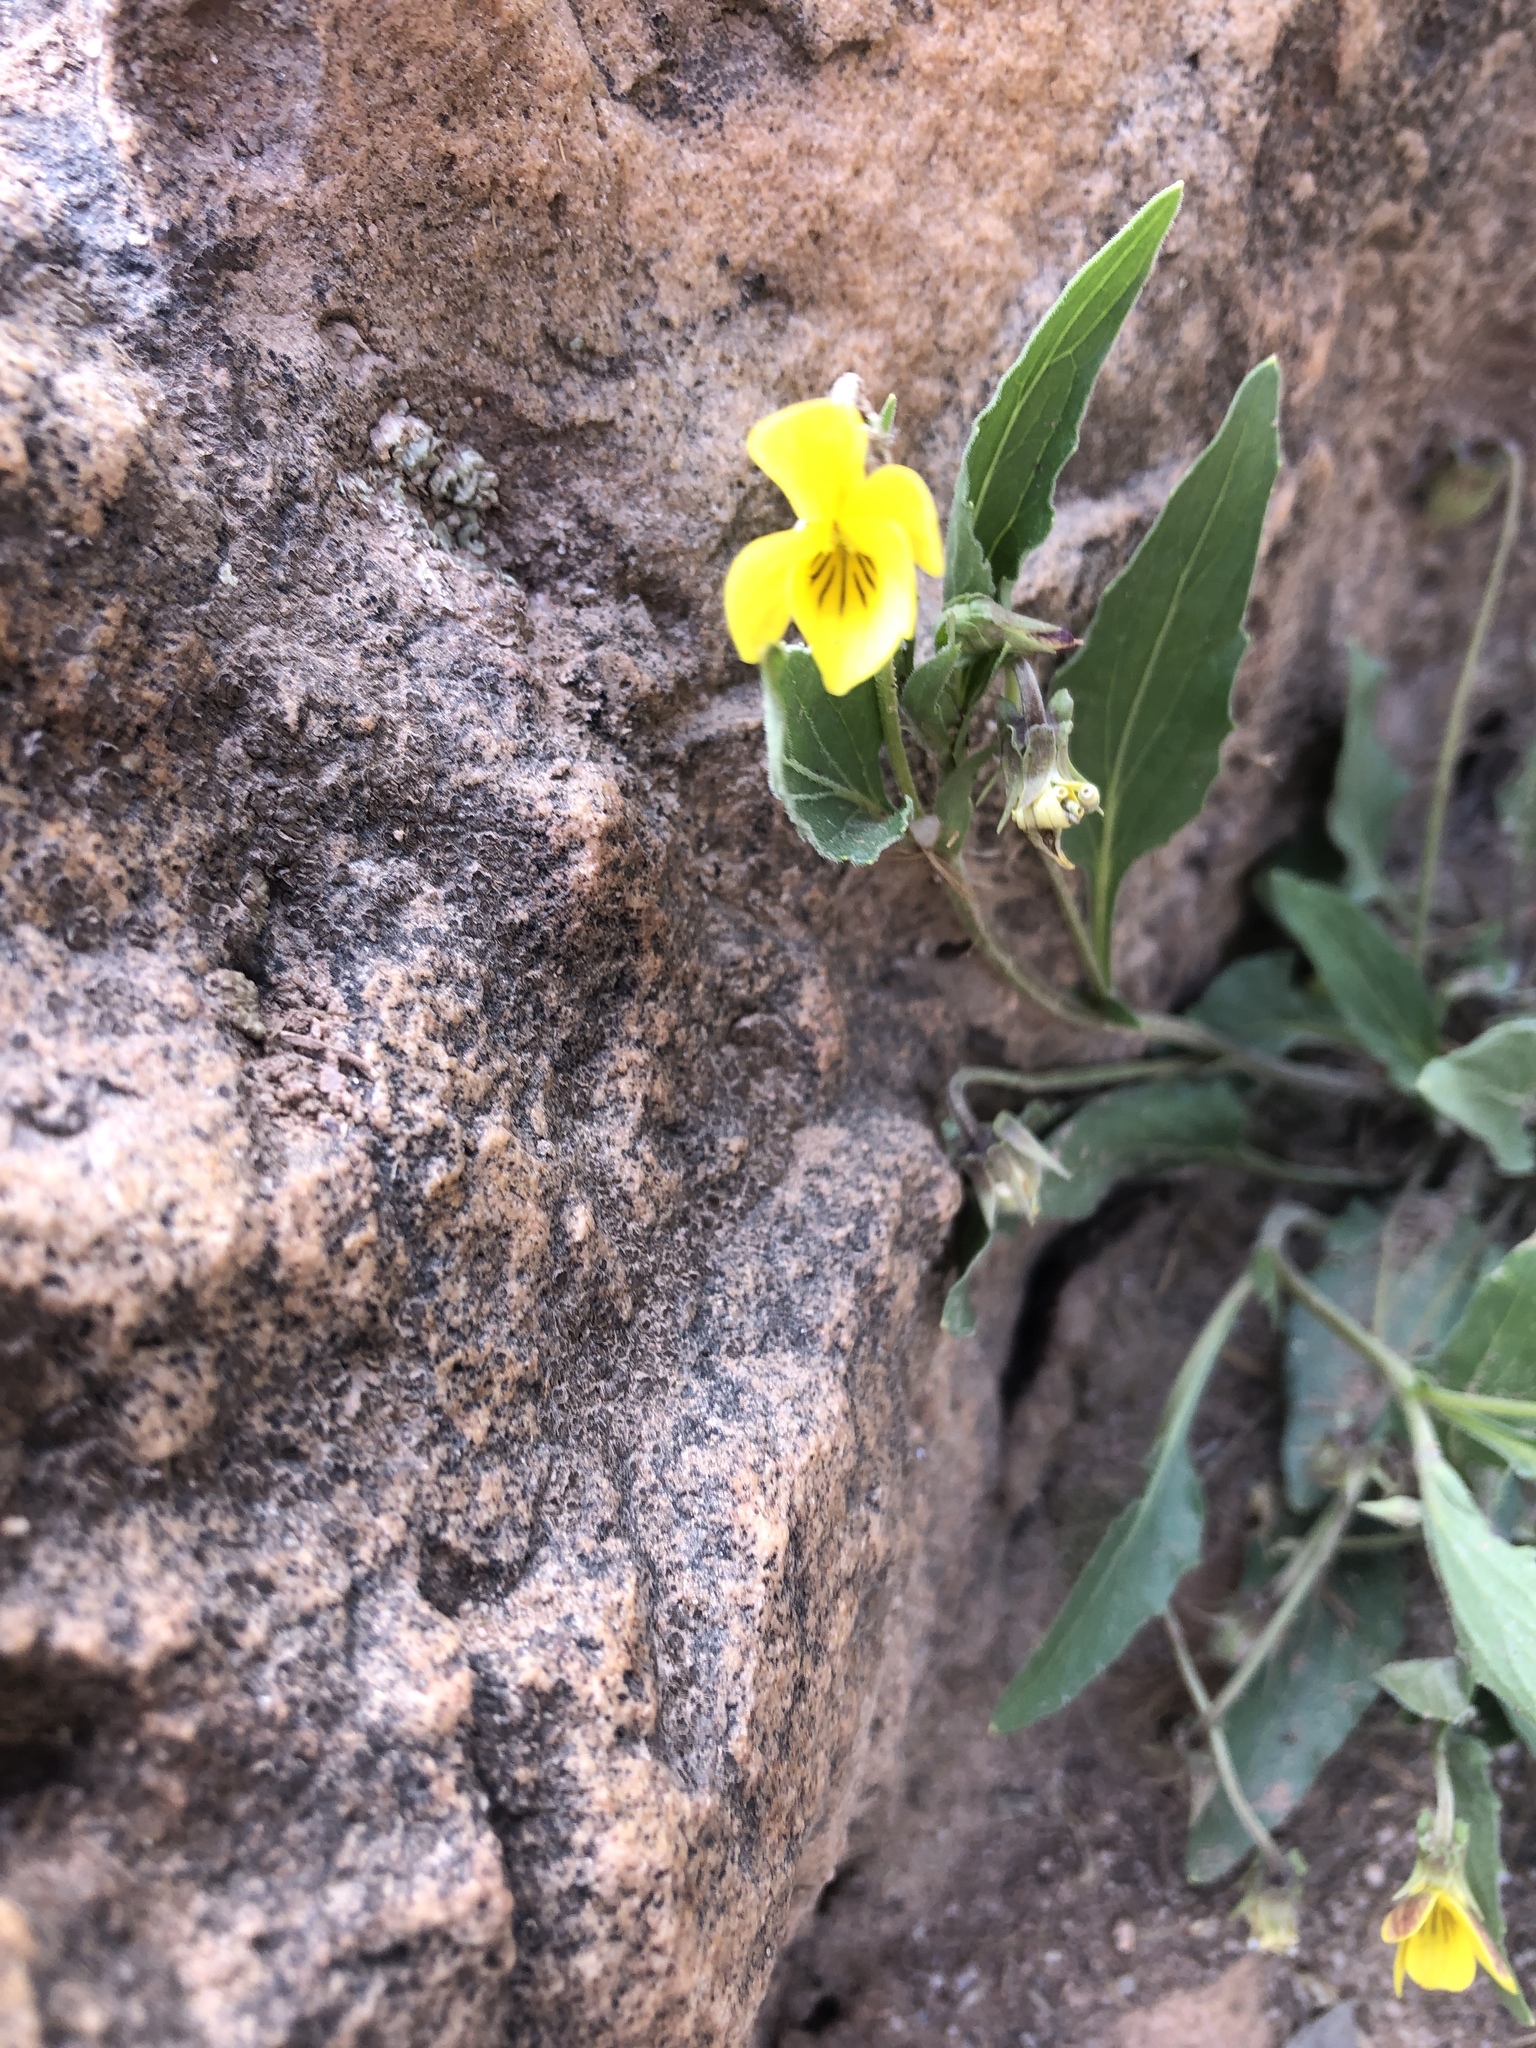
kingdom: Plantae
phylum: Tracheophyta
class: Magnoliopsida
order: Malpighiales
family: Violaceae
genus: Viola
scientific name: Viola nuttallii
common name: Yellow prairie violet
